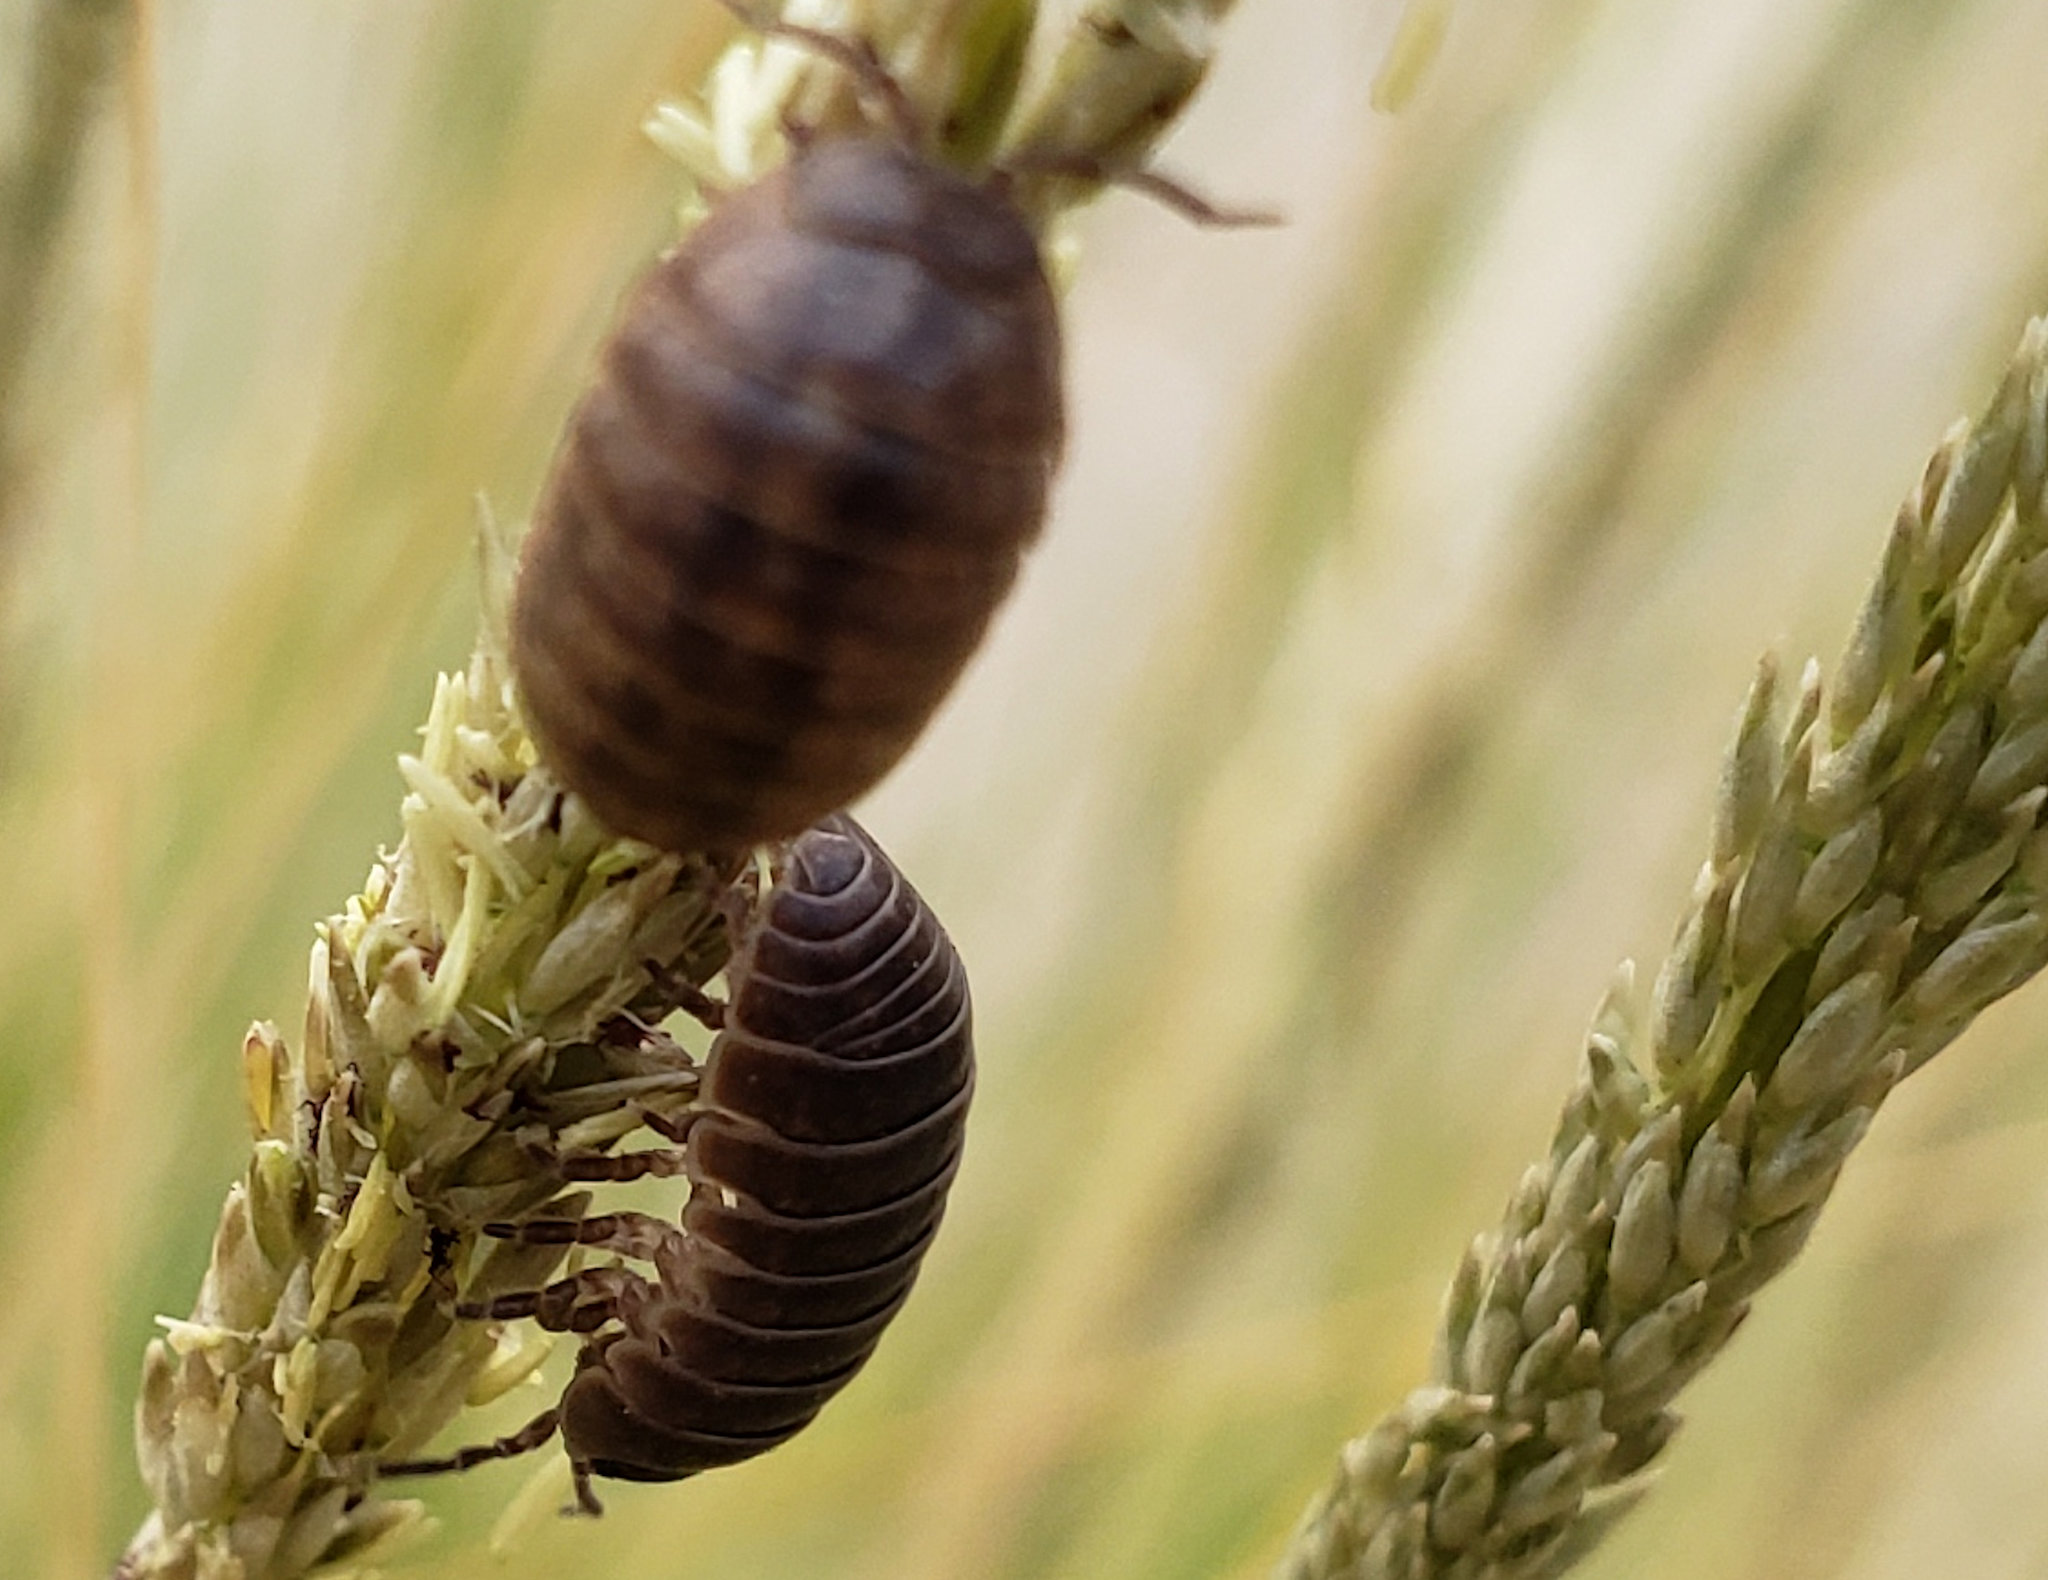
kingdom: Animalia
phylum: Arthropoda
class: Malacostraca
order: Isopoda
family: Armadillidiidae
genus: Armadillidium
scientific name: Armadillidium vulgare
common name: Common pill woodlouse
